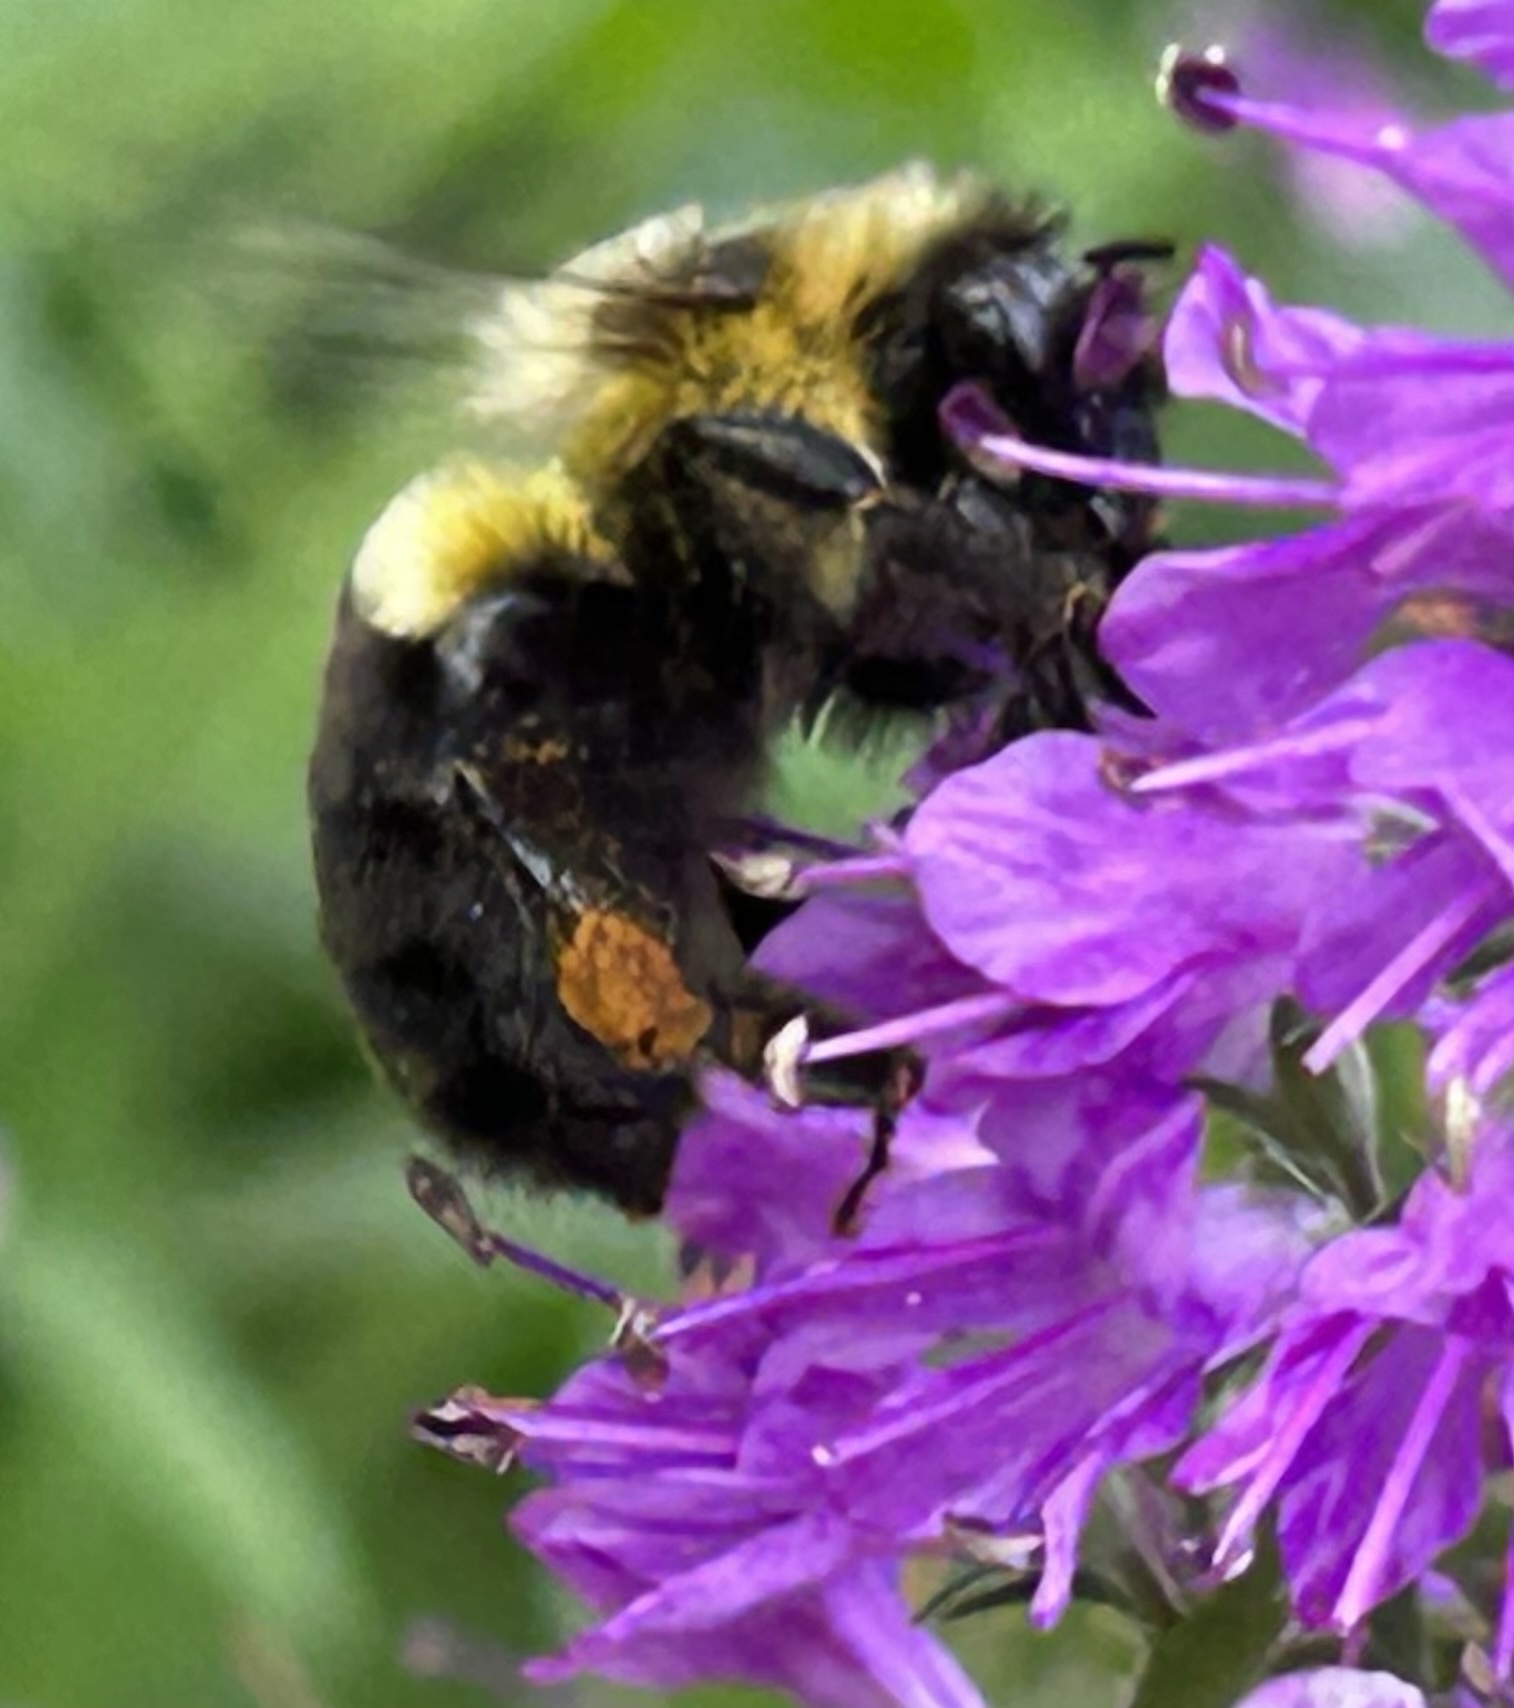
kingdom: Animalia
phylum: Arthropoda
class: Insecta
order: Hymenoptera
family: Apidae
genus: Bombus
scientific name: Bombus impatiens
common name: Common eastern bumble bee
